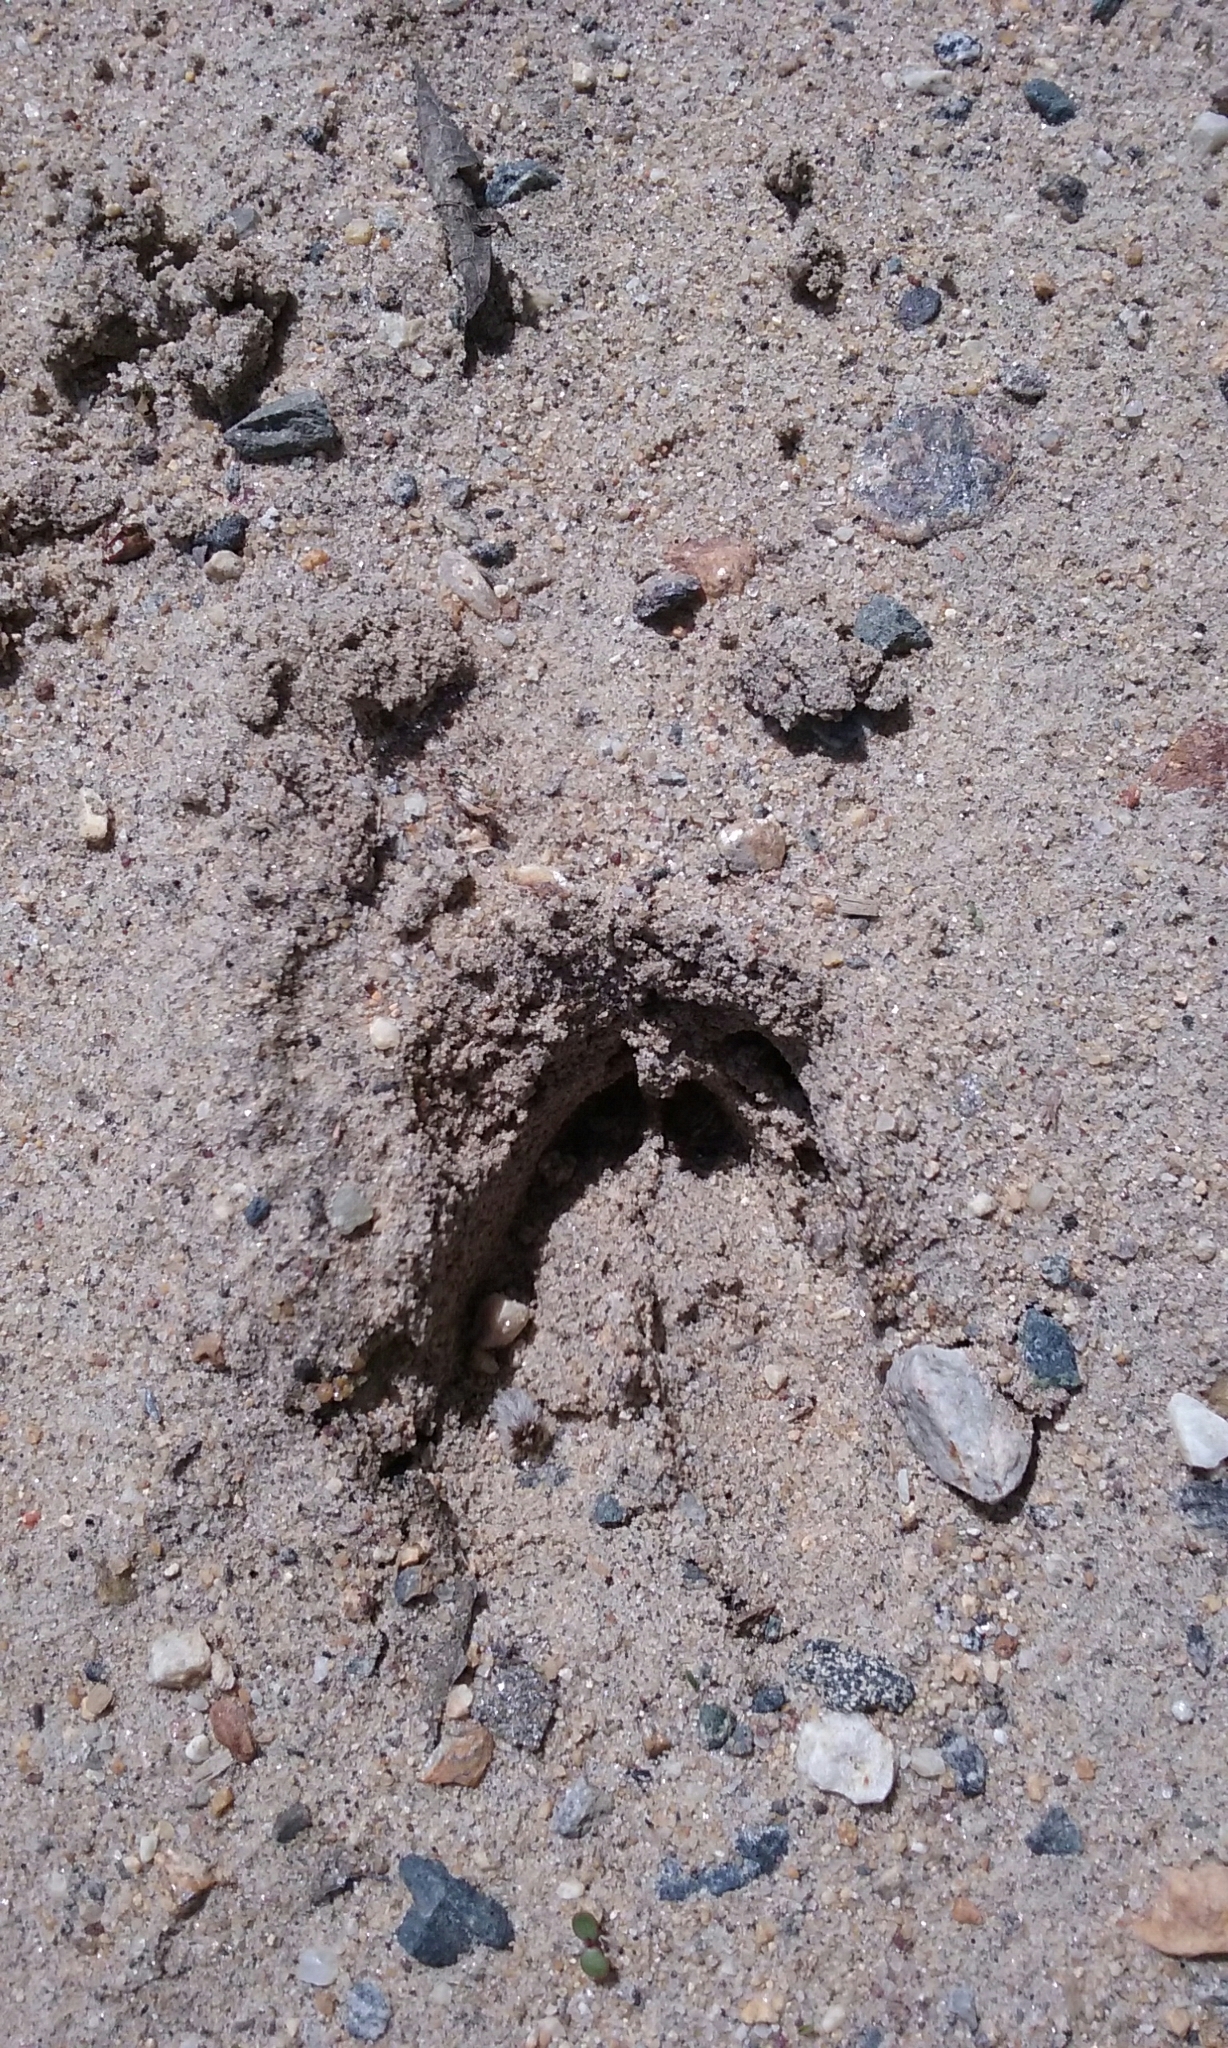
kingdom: Animalia
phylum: Chordata
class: Mammalia
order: Artiodactyla
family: Cervidae
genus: Odocoileus
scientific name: Odocoileus virginianus
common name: White-tailed deer
